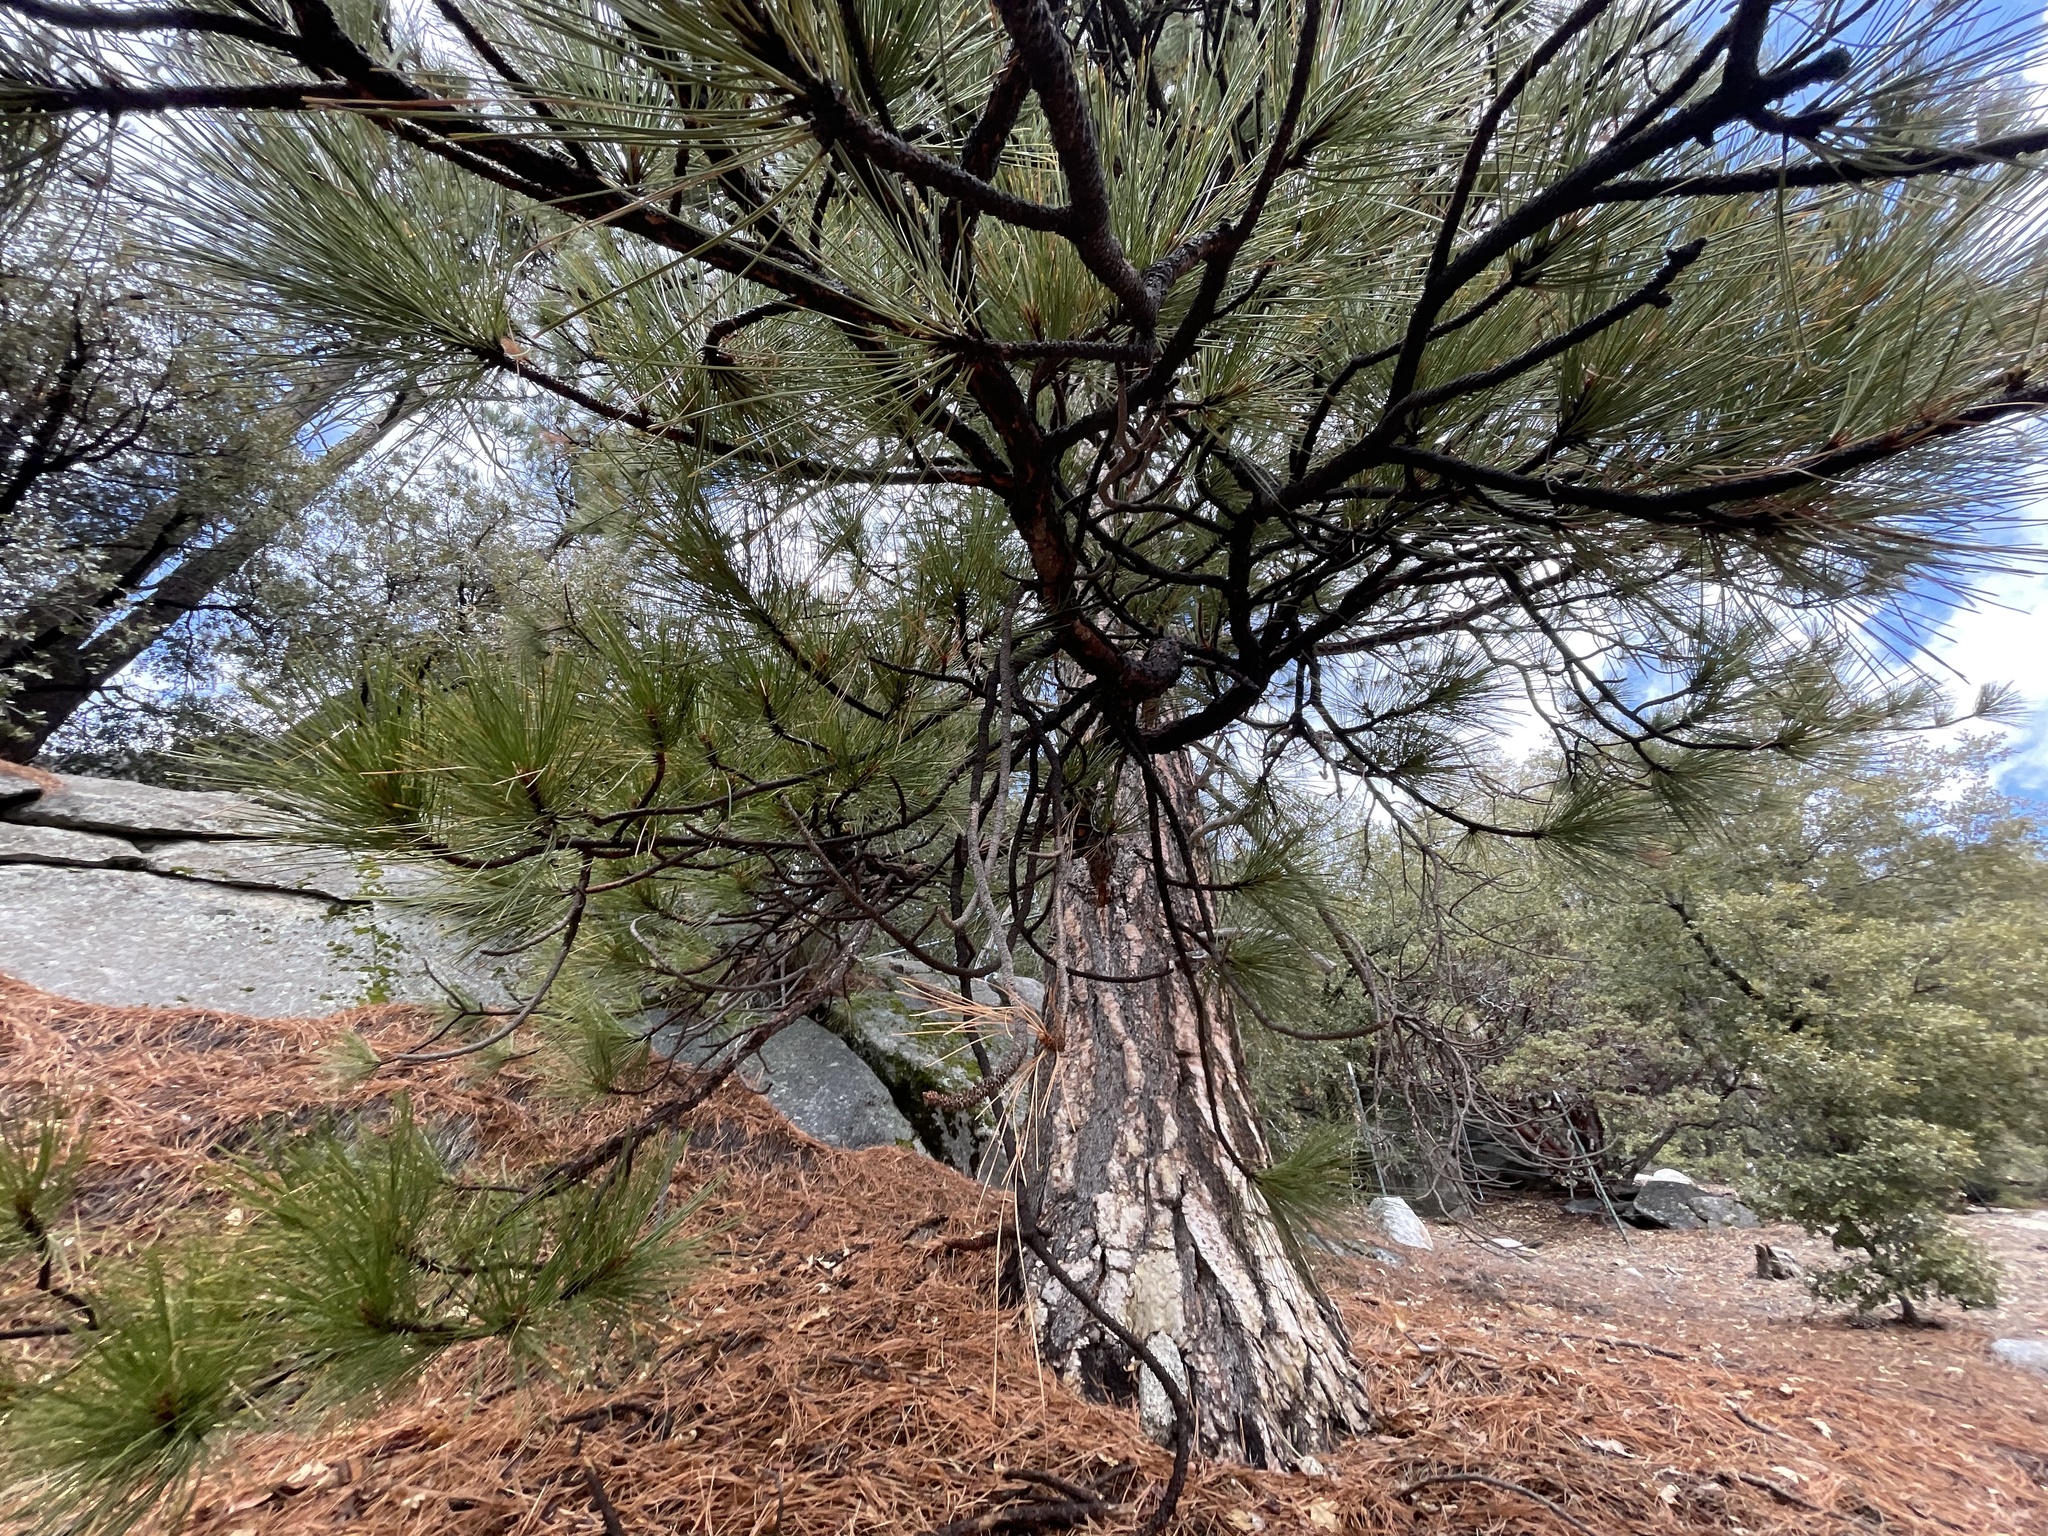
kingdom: Plantae
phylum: Tracheophyta
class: Pinopsida
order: Pinales
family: Pinaceae
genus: Pinus
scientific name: Pinus coulteri
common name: Coulter pine
